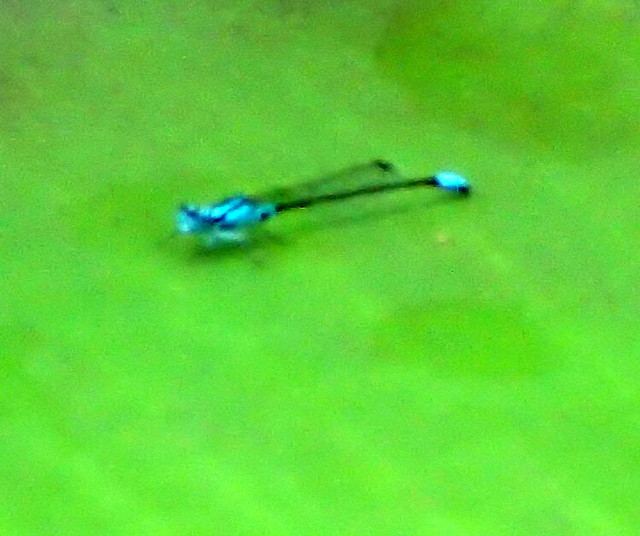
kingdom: Animalia
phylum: Arthropoda
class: Insecta
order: Odonata
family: Coenagrionidae
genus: Ischnura
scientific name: Ischnura kellicotti
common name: Lilypad forktail
